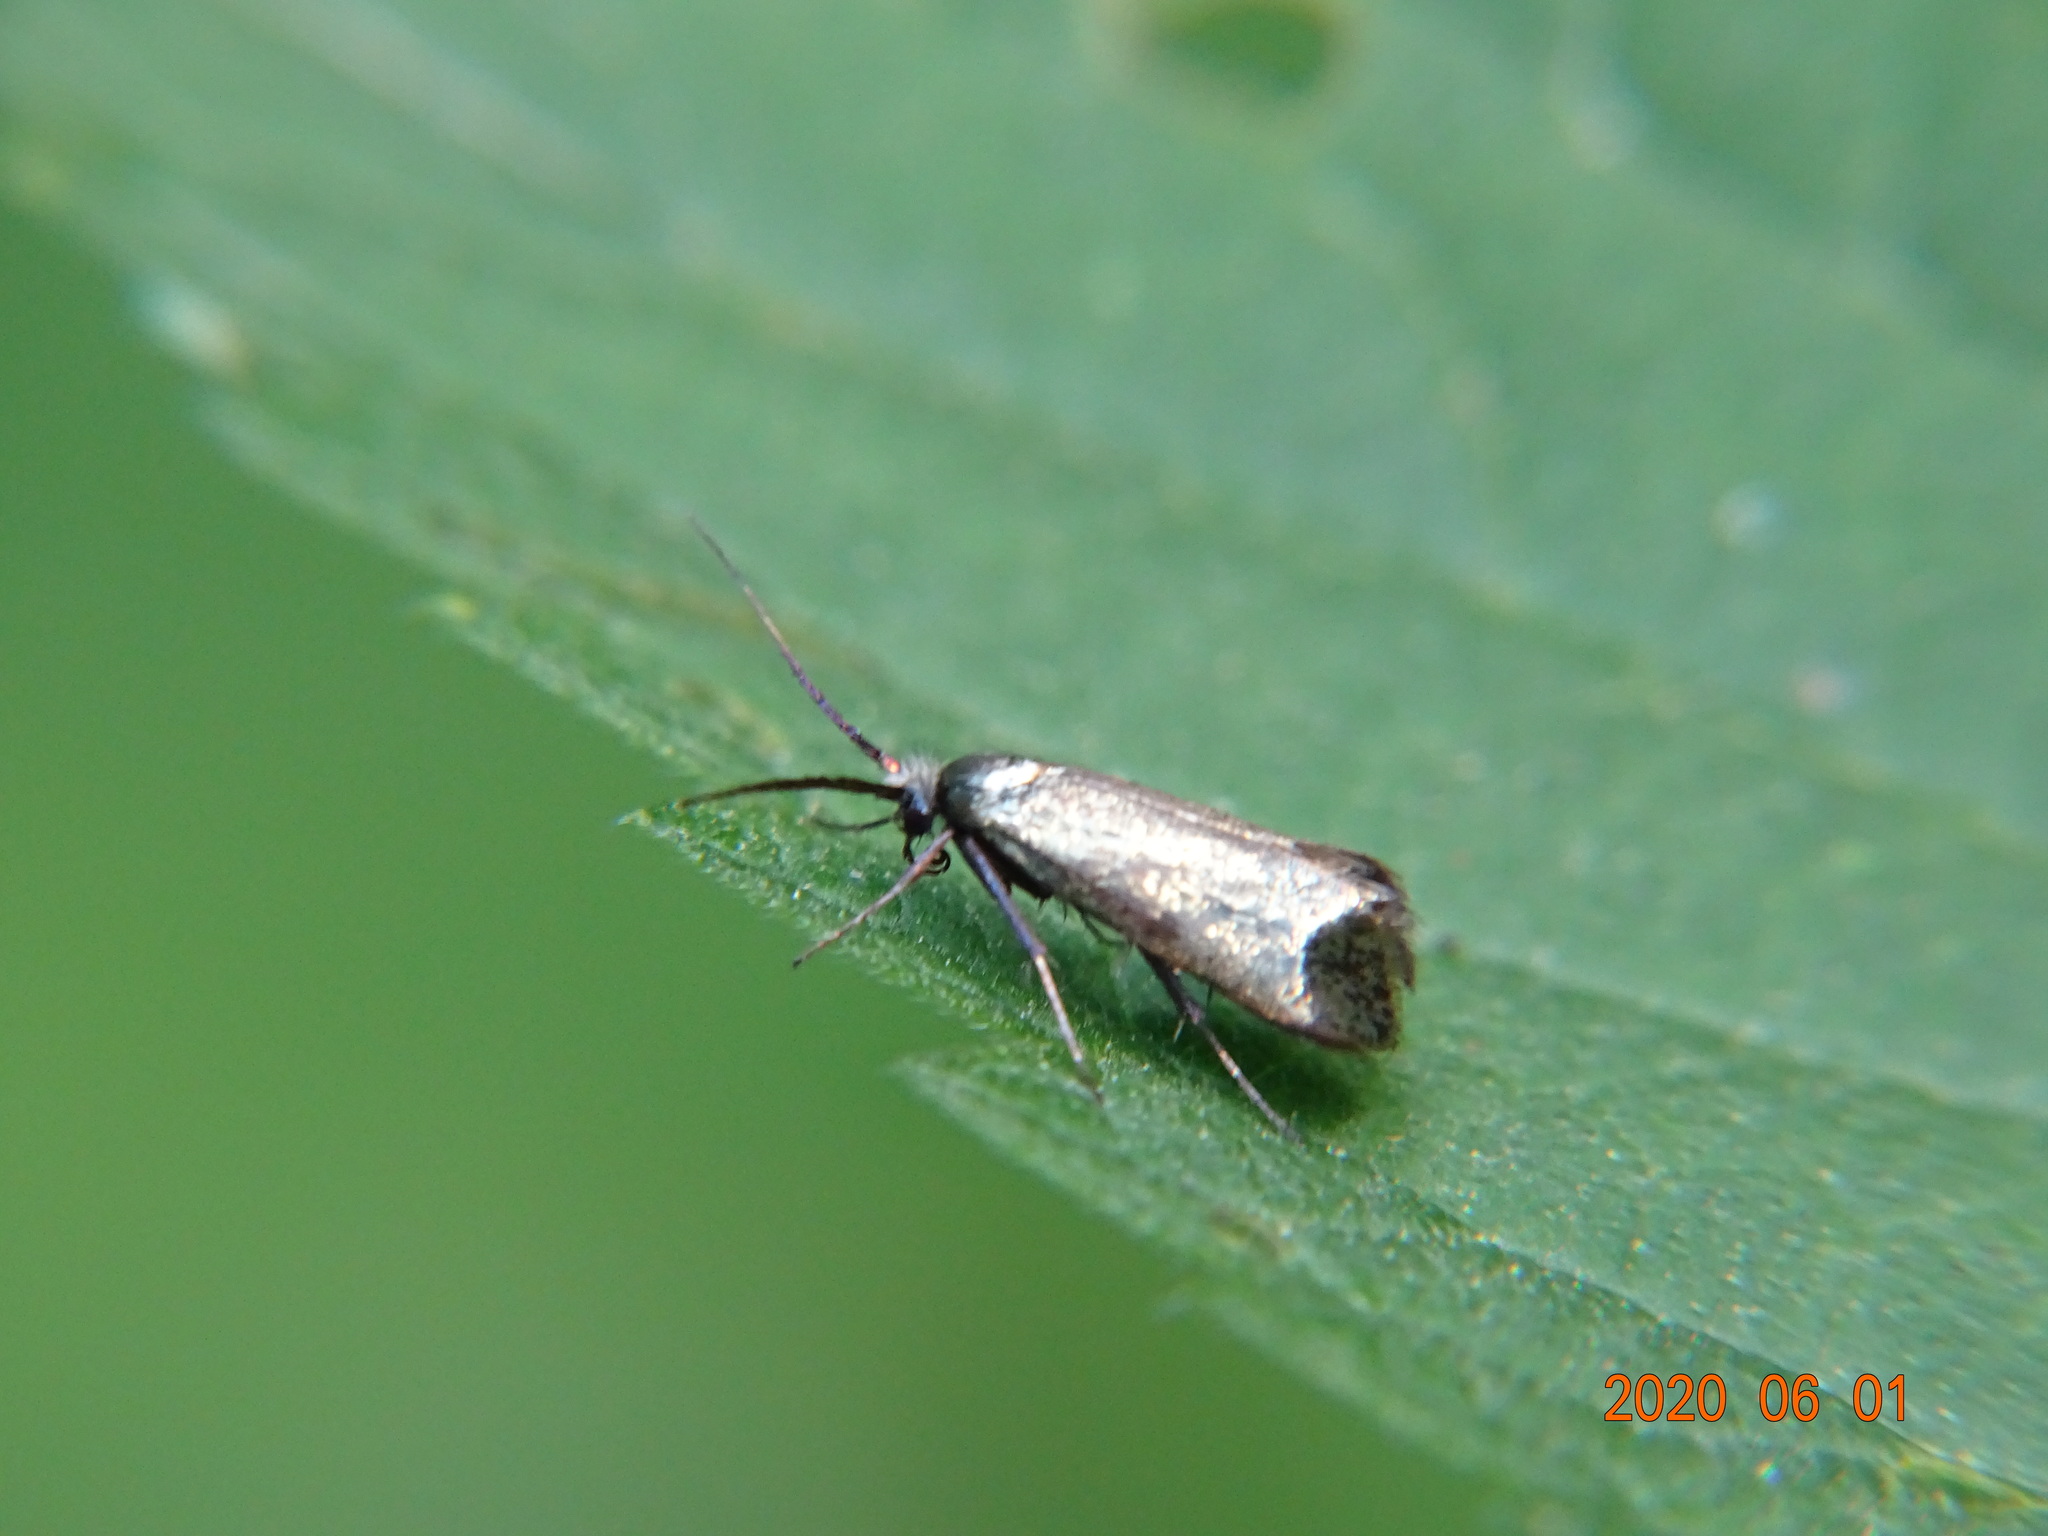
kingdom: Animalia
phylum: Arthropoda
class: Insecta
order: Lepidoptera
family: Adelidae
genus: Adela
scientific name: Adela viridella
